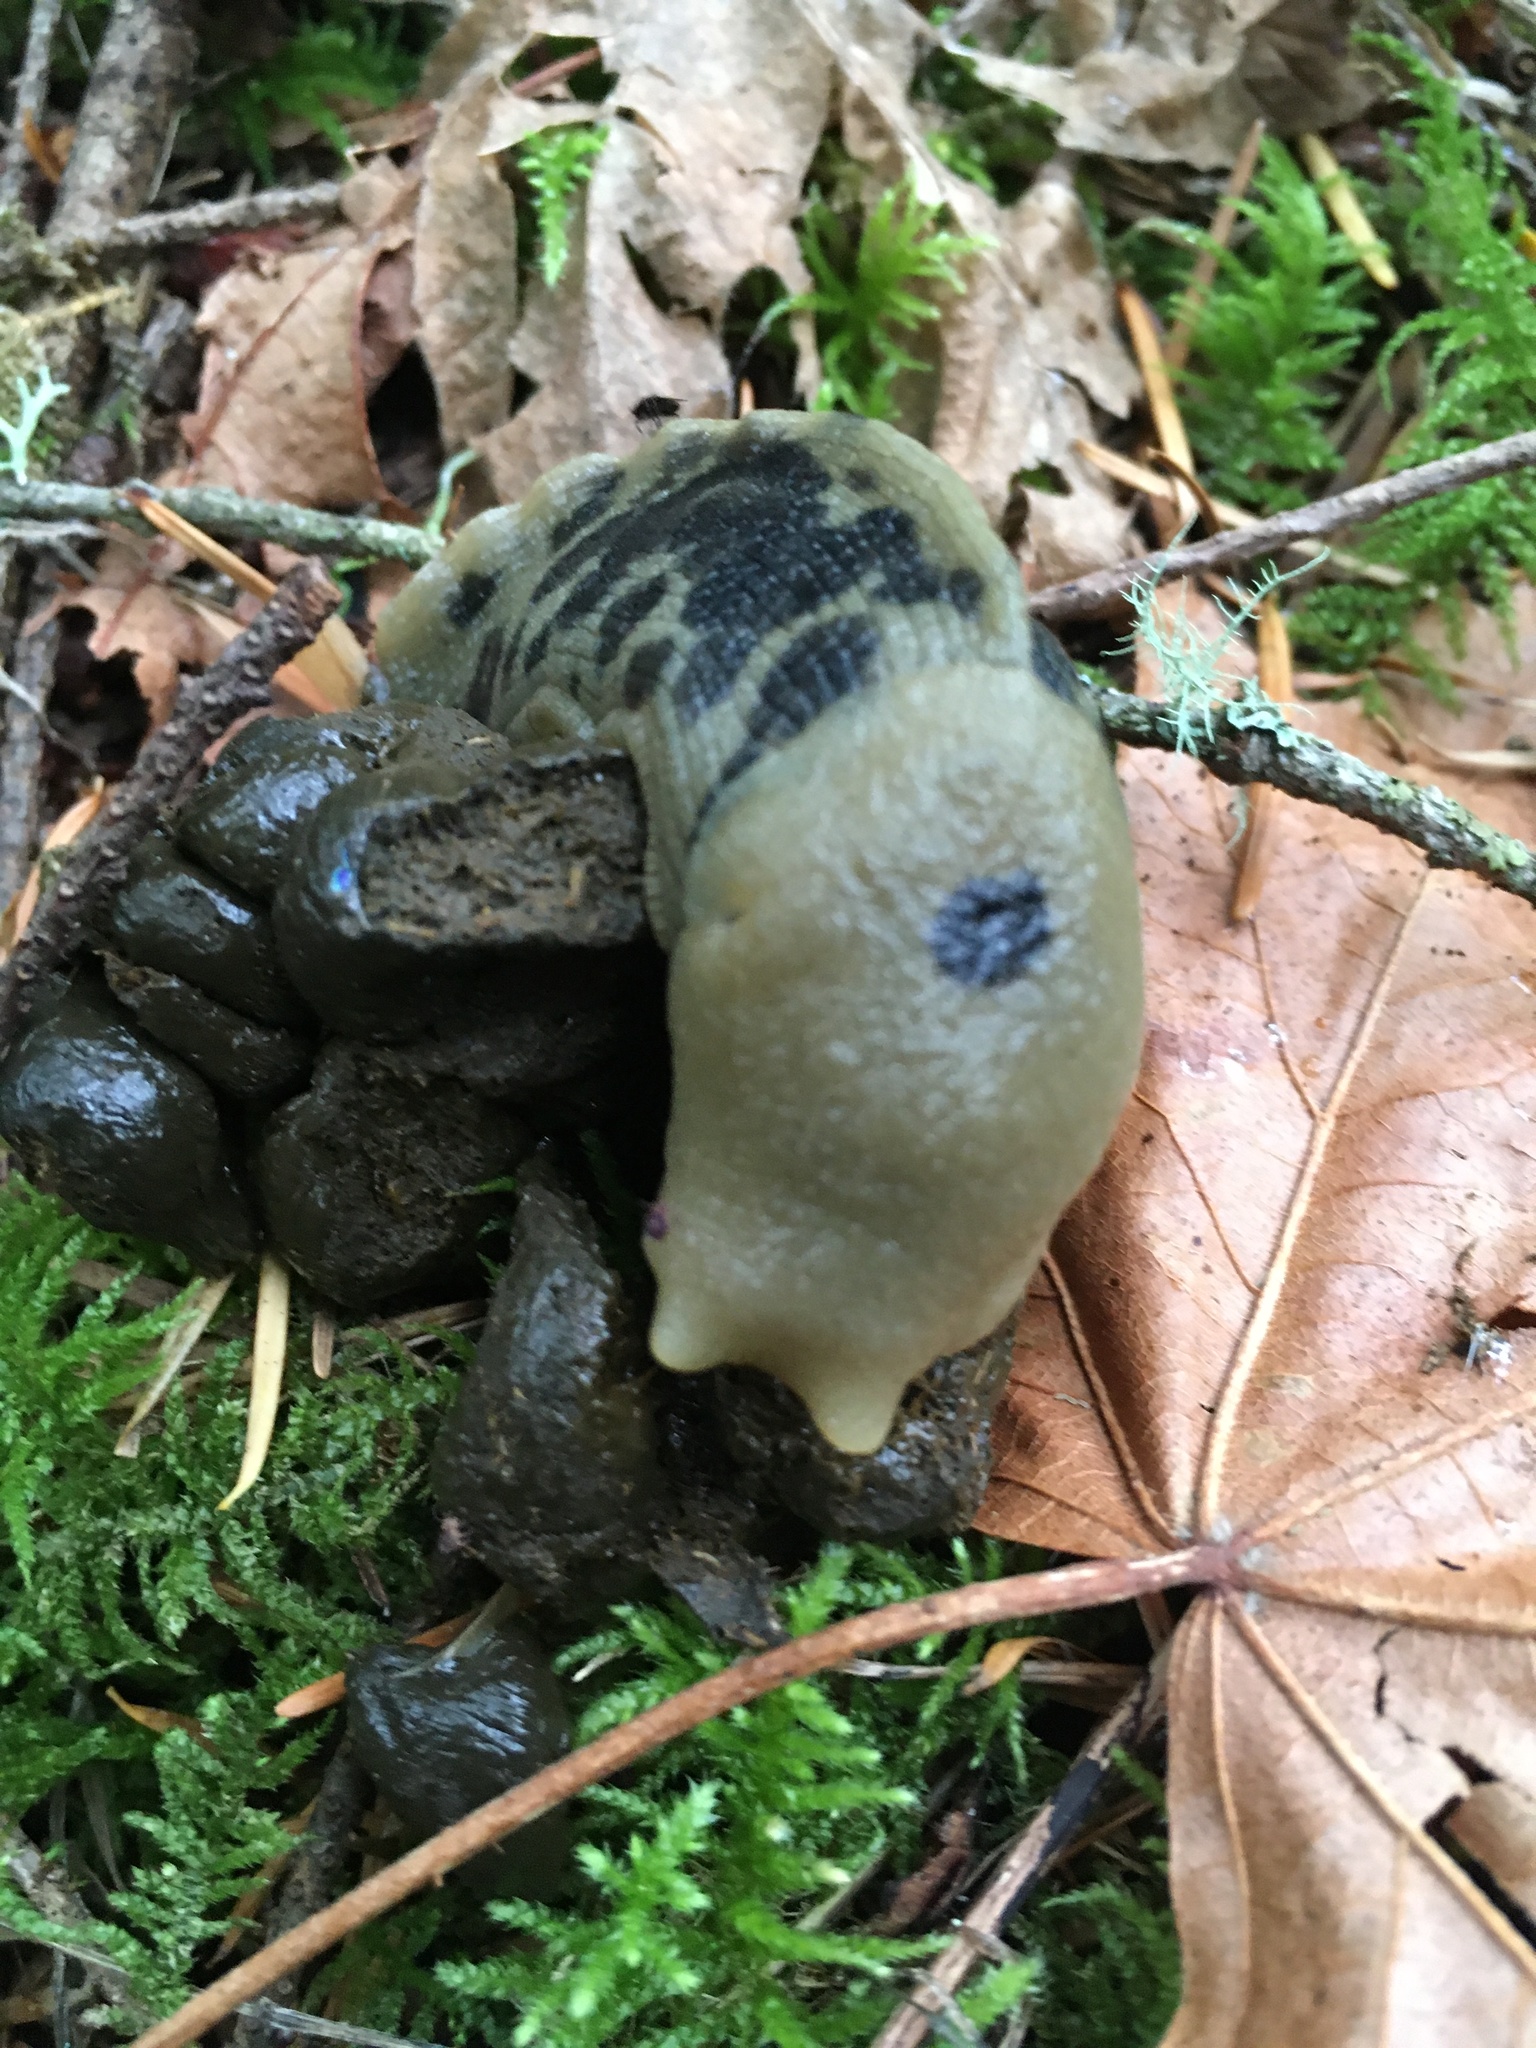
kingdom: Animalia
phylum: Mollusca
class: Gastropoda
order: Stylommatophora
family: Ariolimacidae
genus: Ariolimax
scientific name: Ariolimax columbianus
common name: Pacific banana slug
